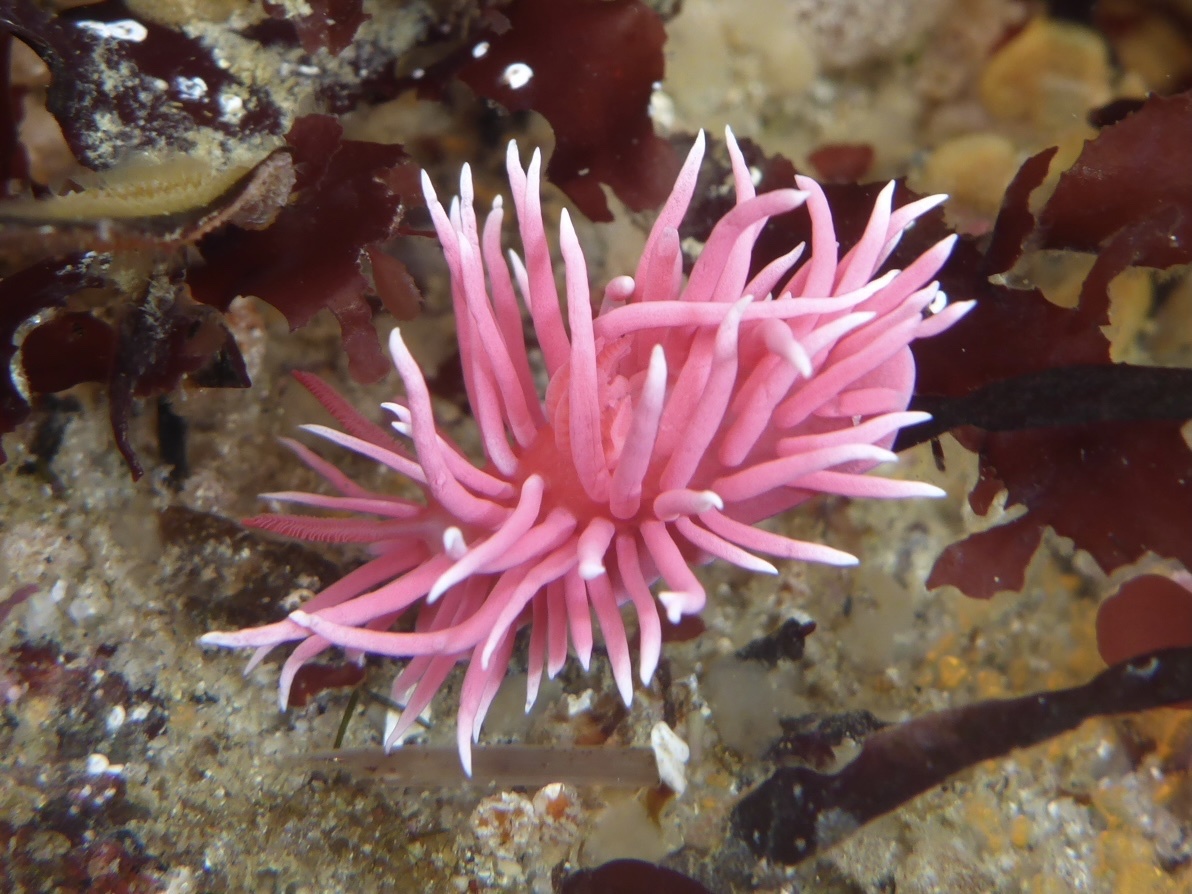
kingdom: Animalia
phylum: Mollusca
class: Gastropoda
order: Nudibranchia
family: Goniodorididae
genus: Okenia
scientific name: Okenia
